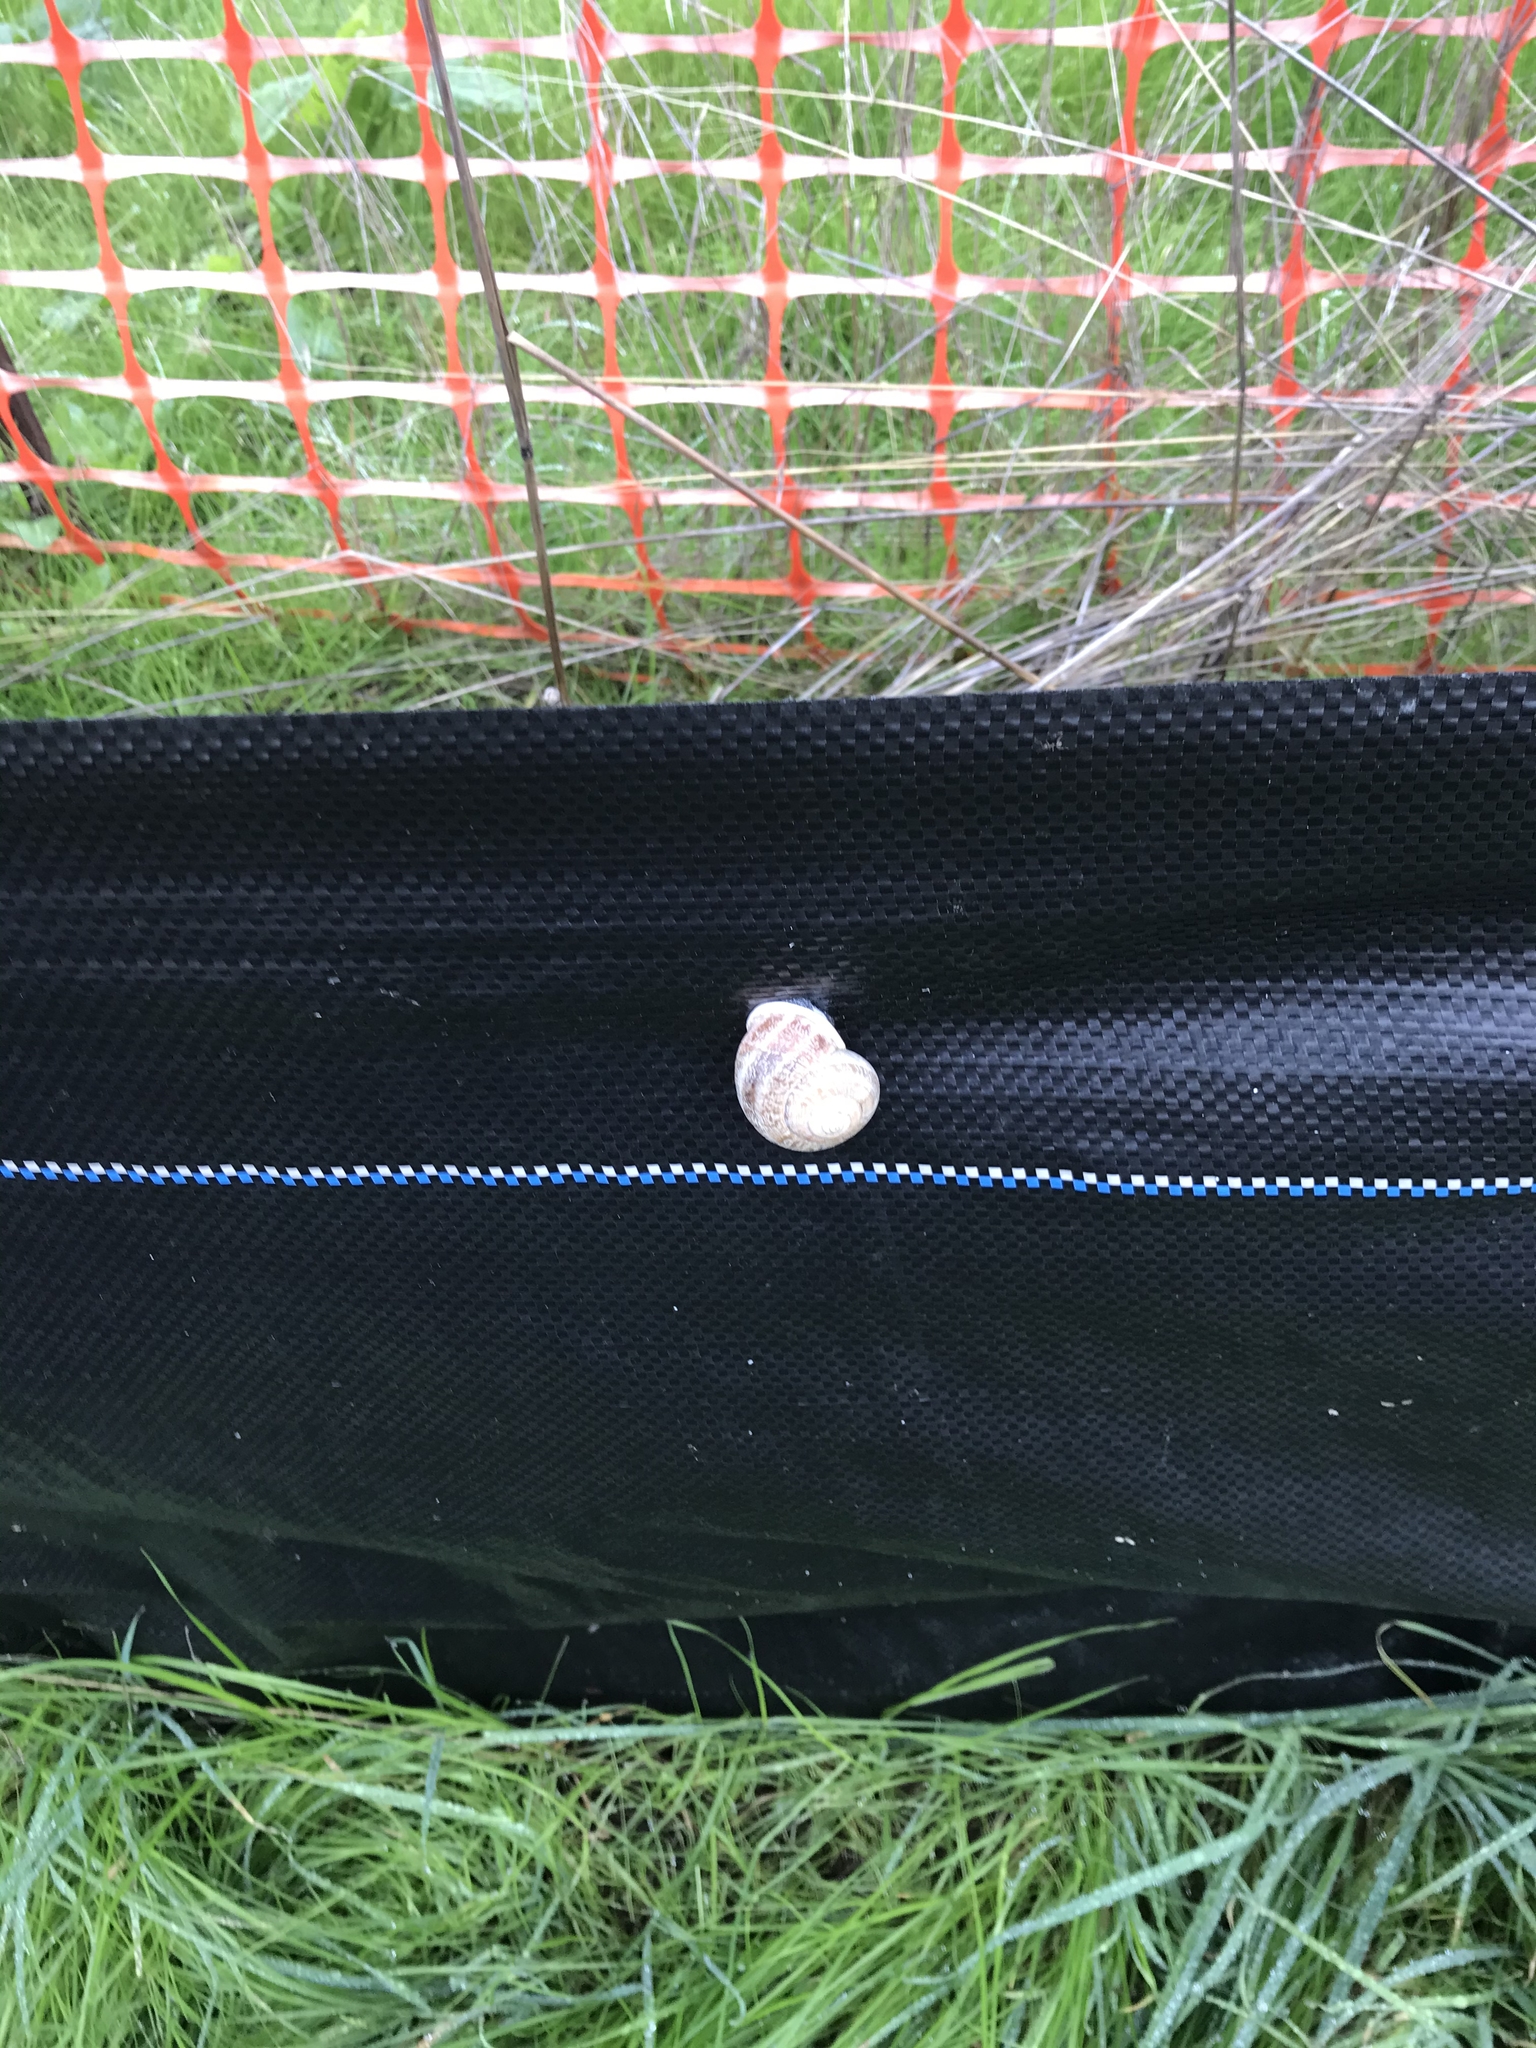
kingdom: Animalia
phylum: Mollusca
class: Gastropoda
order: Stylommatophora
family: Helicidae
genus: Otala
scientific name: Otala lactea
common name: Milk snail
